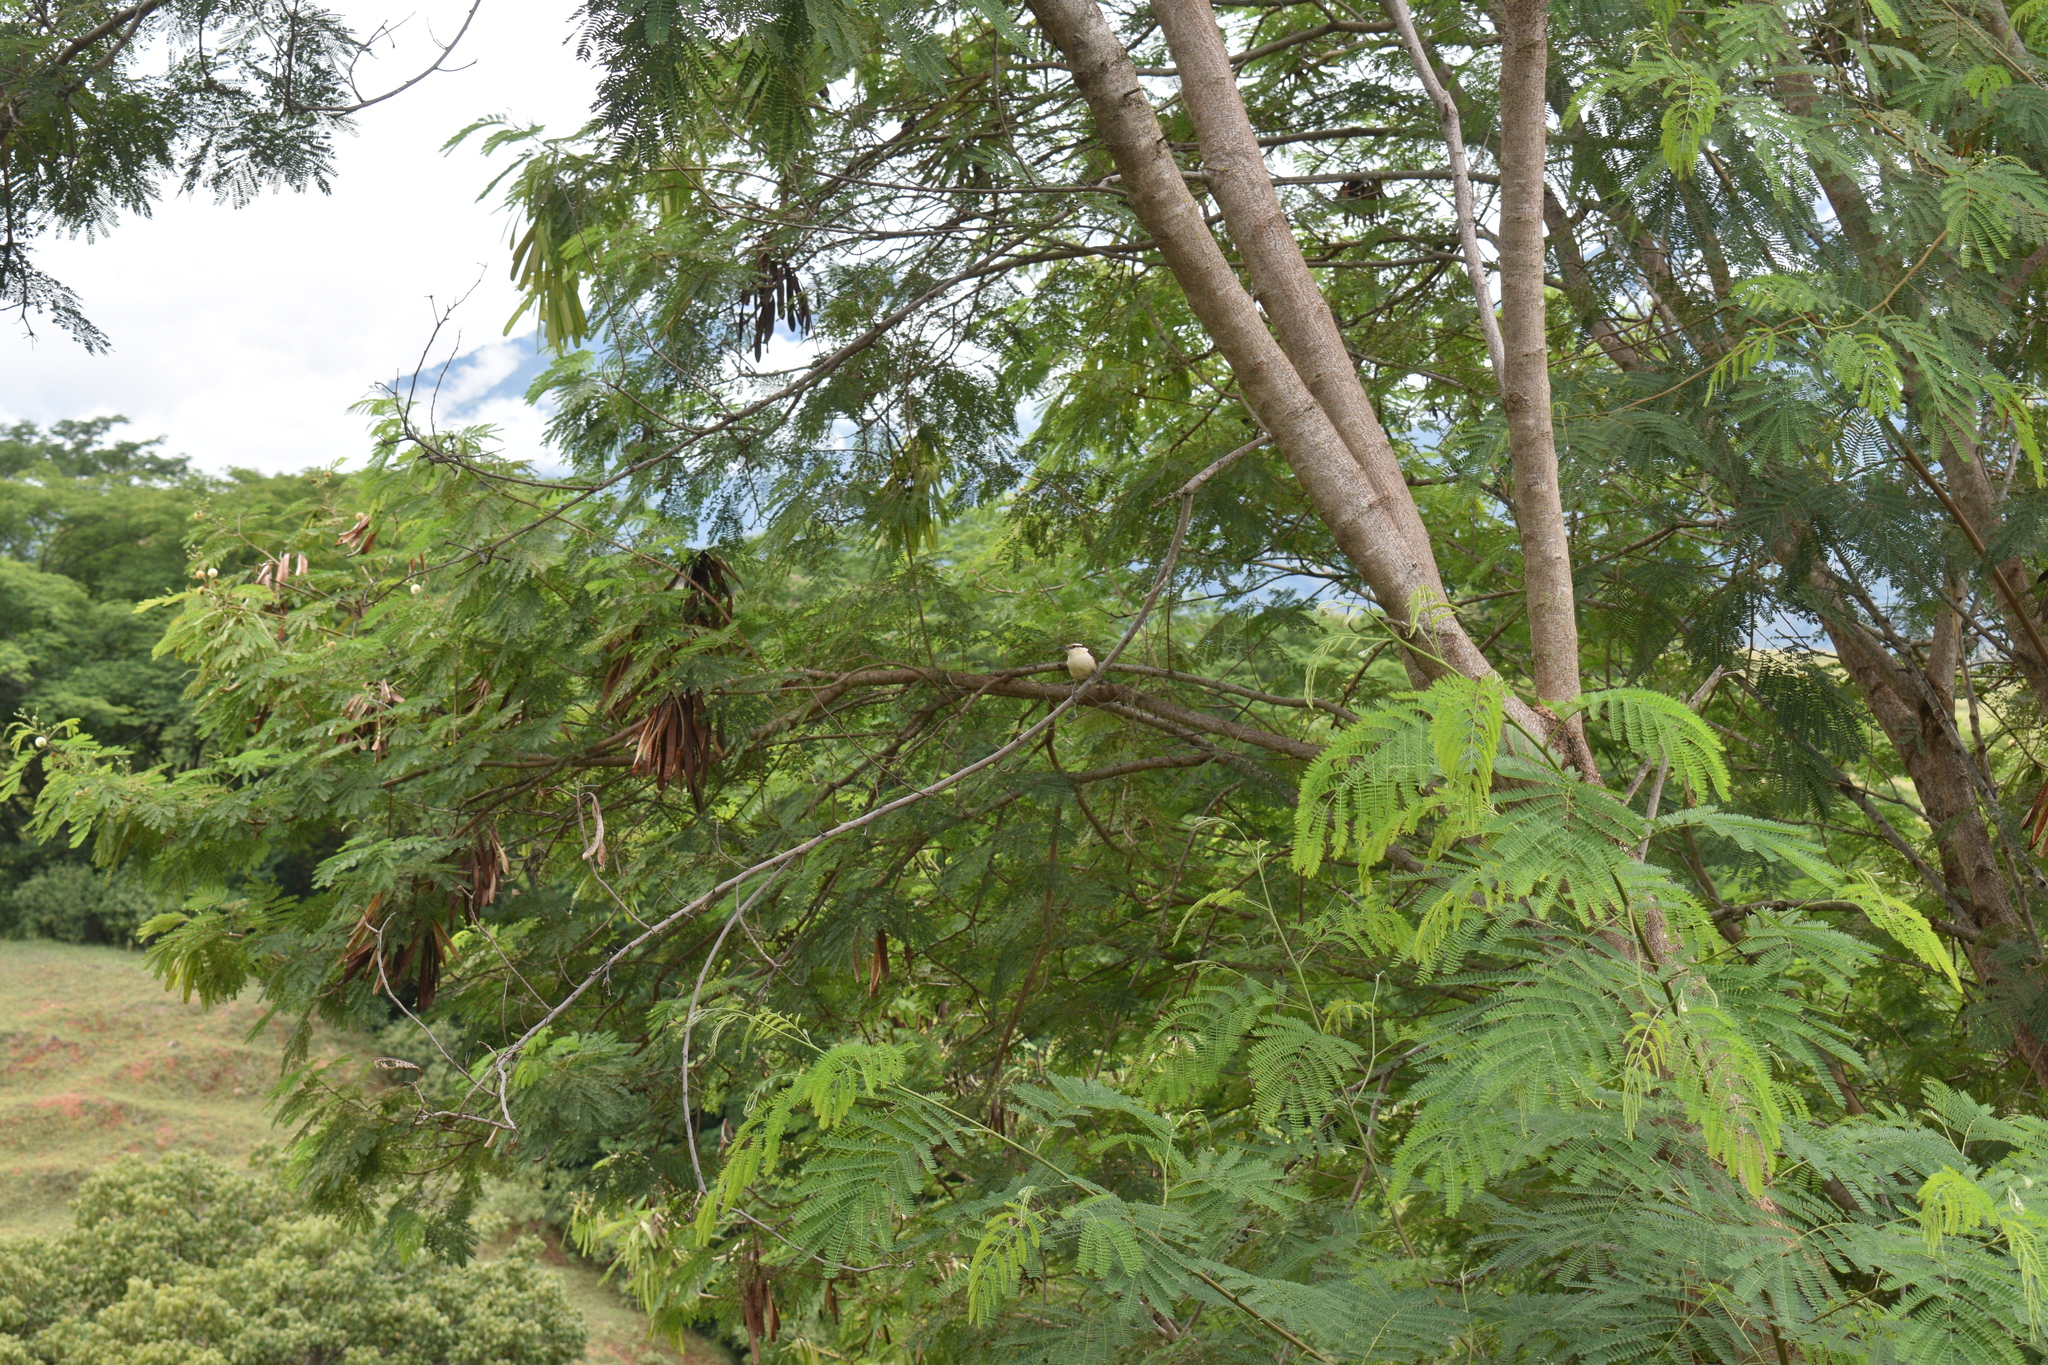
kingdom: Animalia
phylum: Chordata
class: Aves
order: Passeriformes
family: Troglodytidae
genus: Campylorhynchus
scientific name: Campylorhynchus griseus
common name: Bicolored wren
